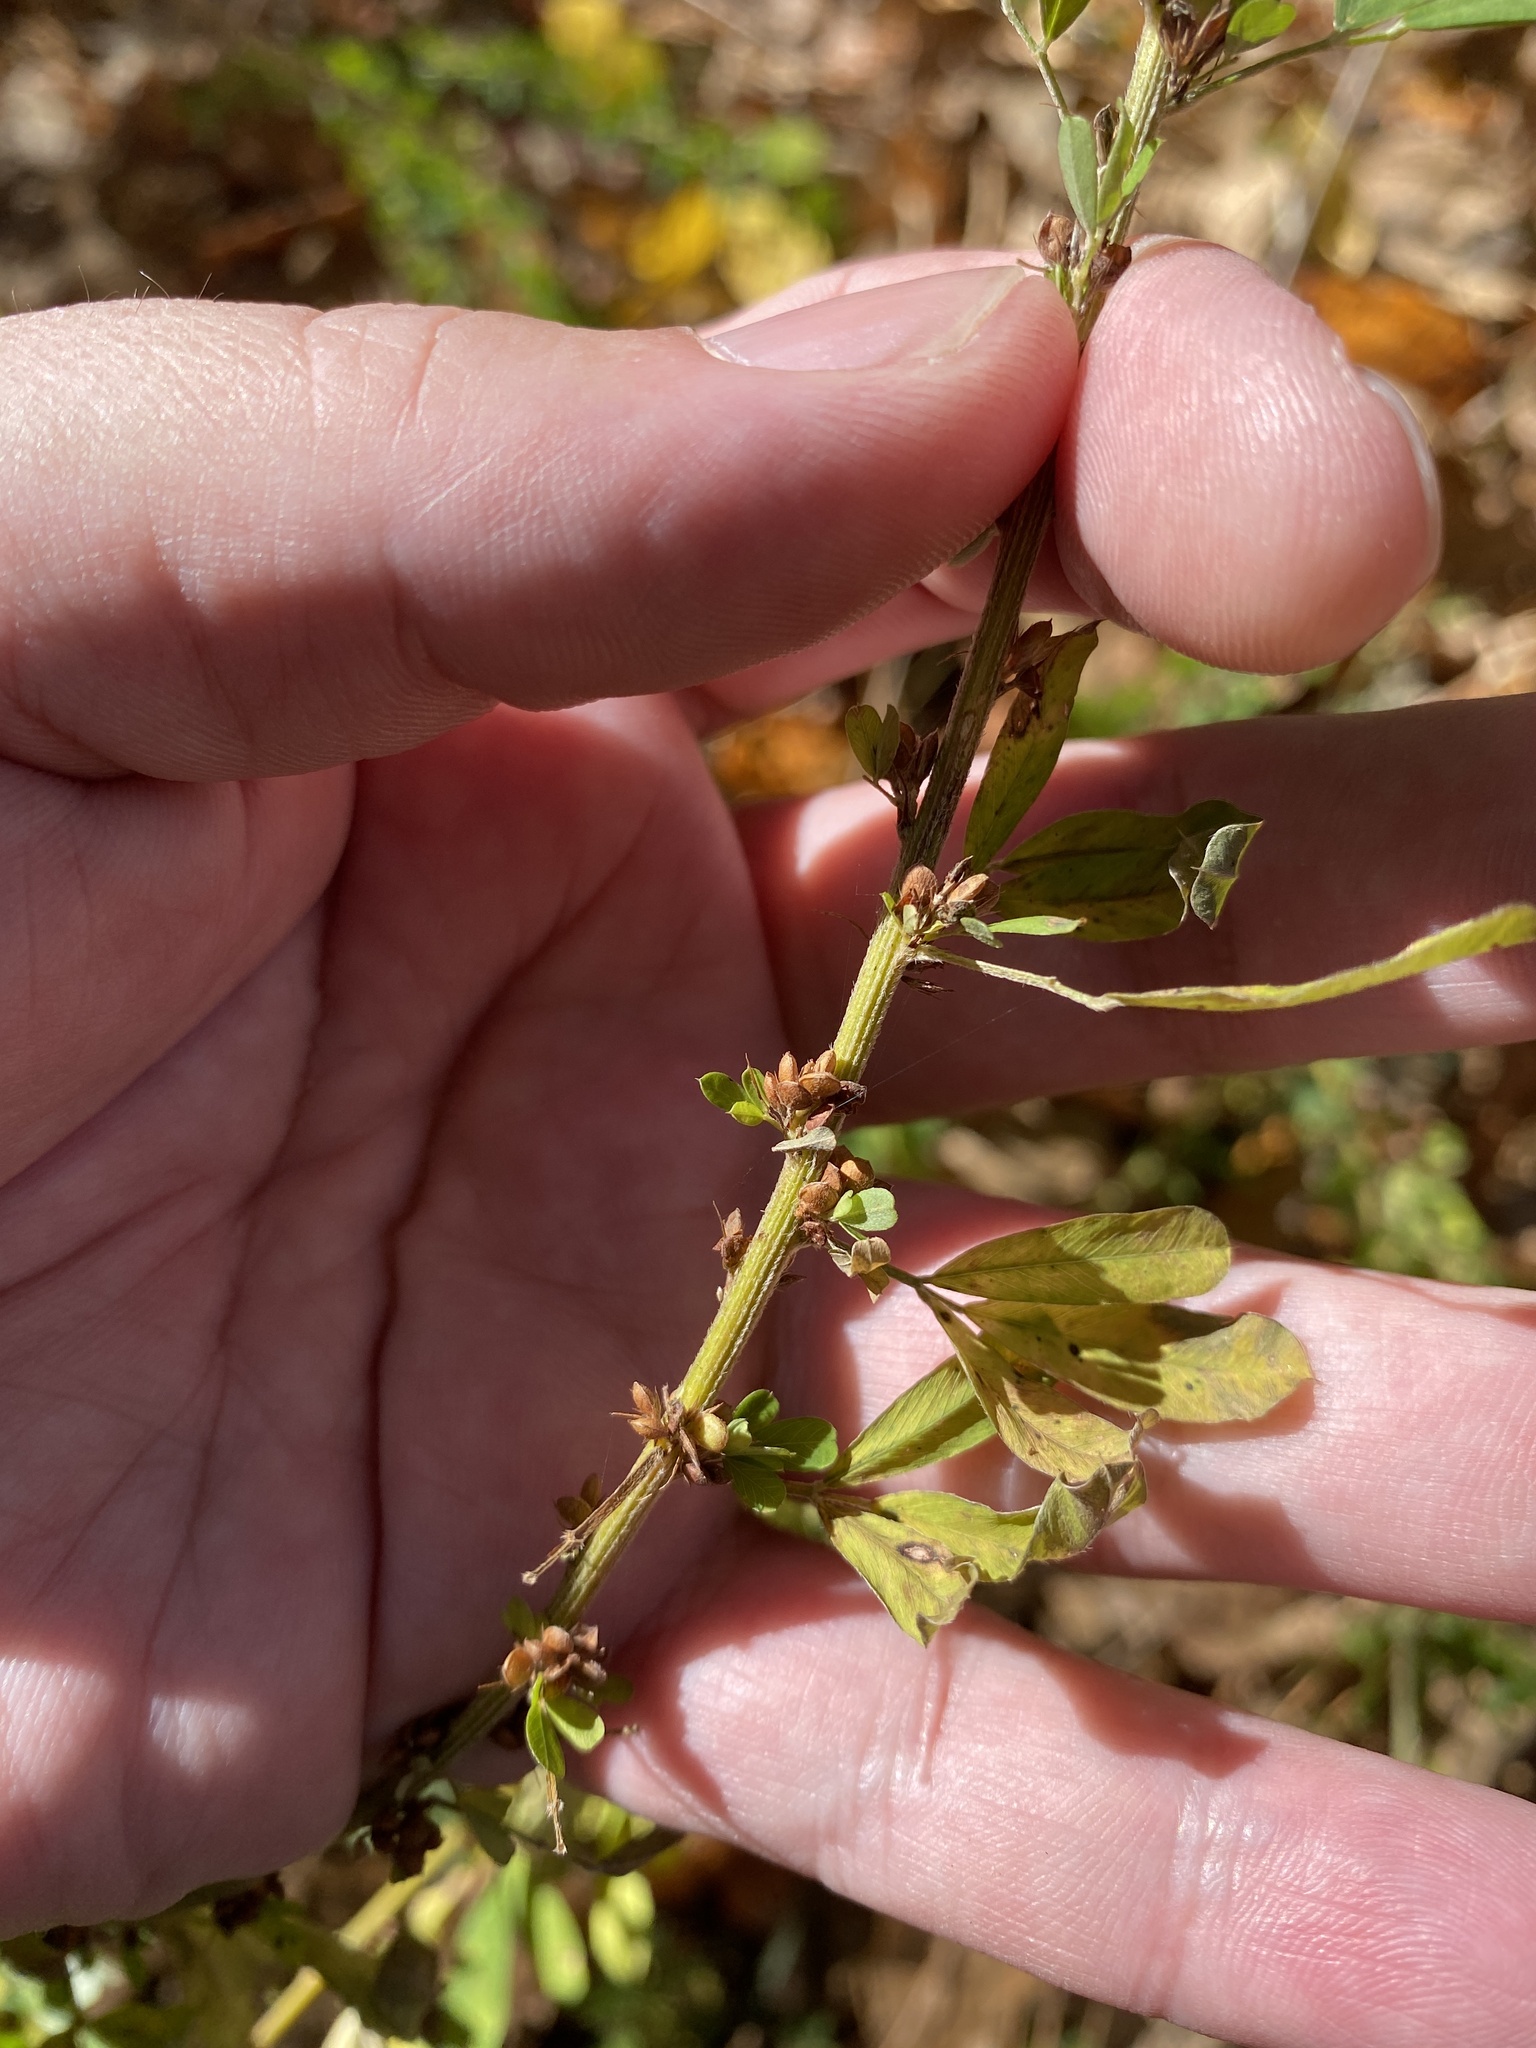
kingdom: Plantae
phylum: Tracheophyta
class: Magnoliopsida
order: Fabales
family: Fabaceae
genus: Lespedeza
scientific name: Lespedeza cuneata
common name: Chinese bush-clover
